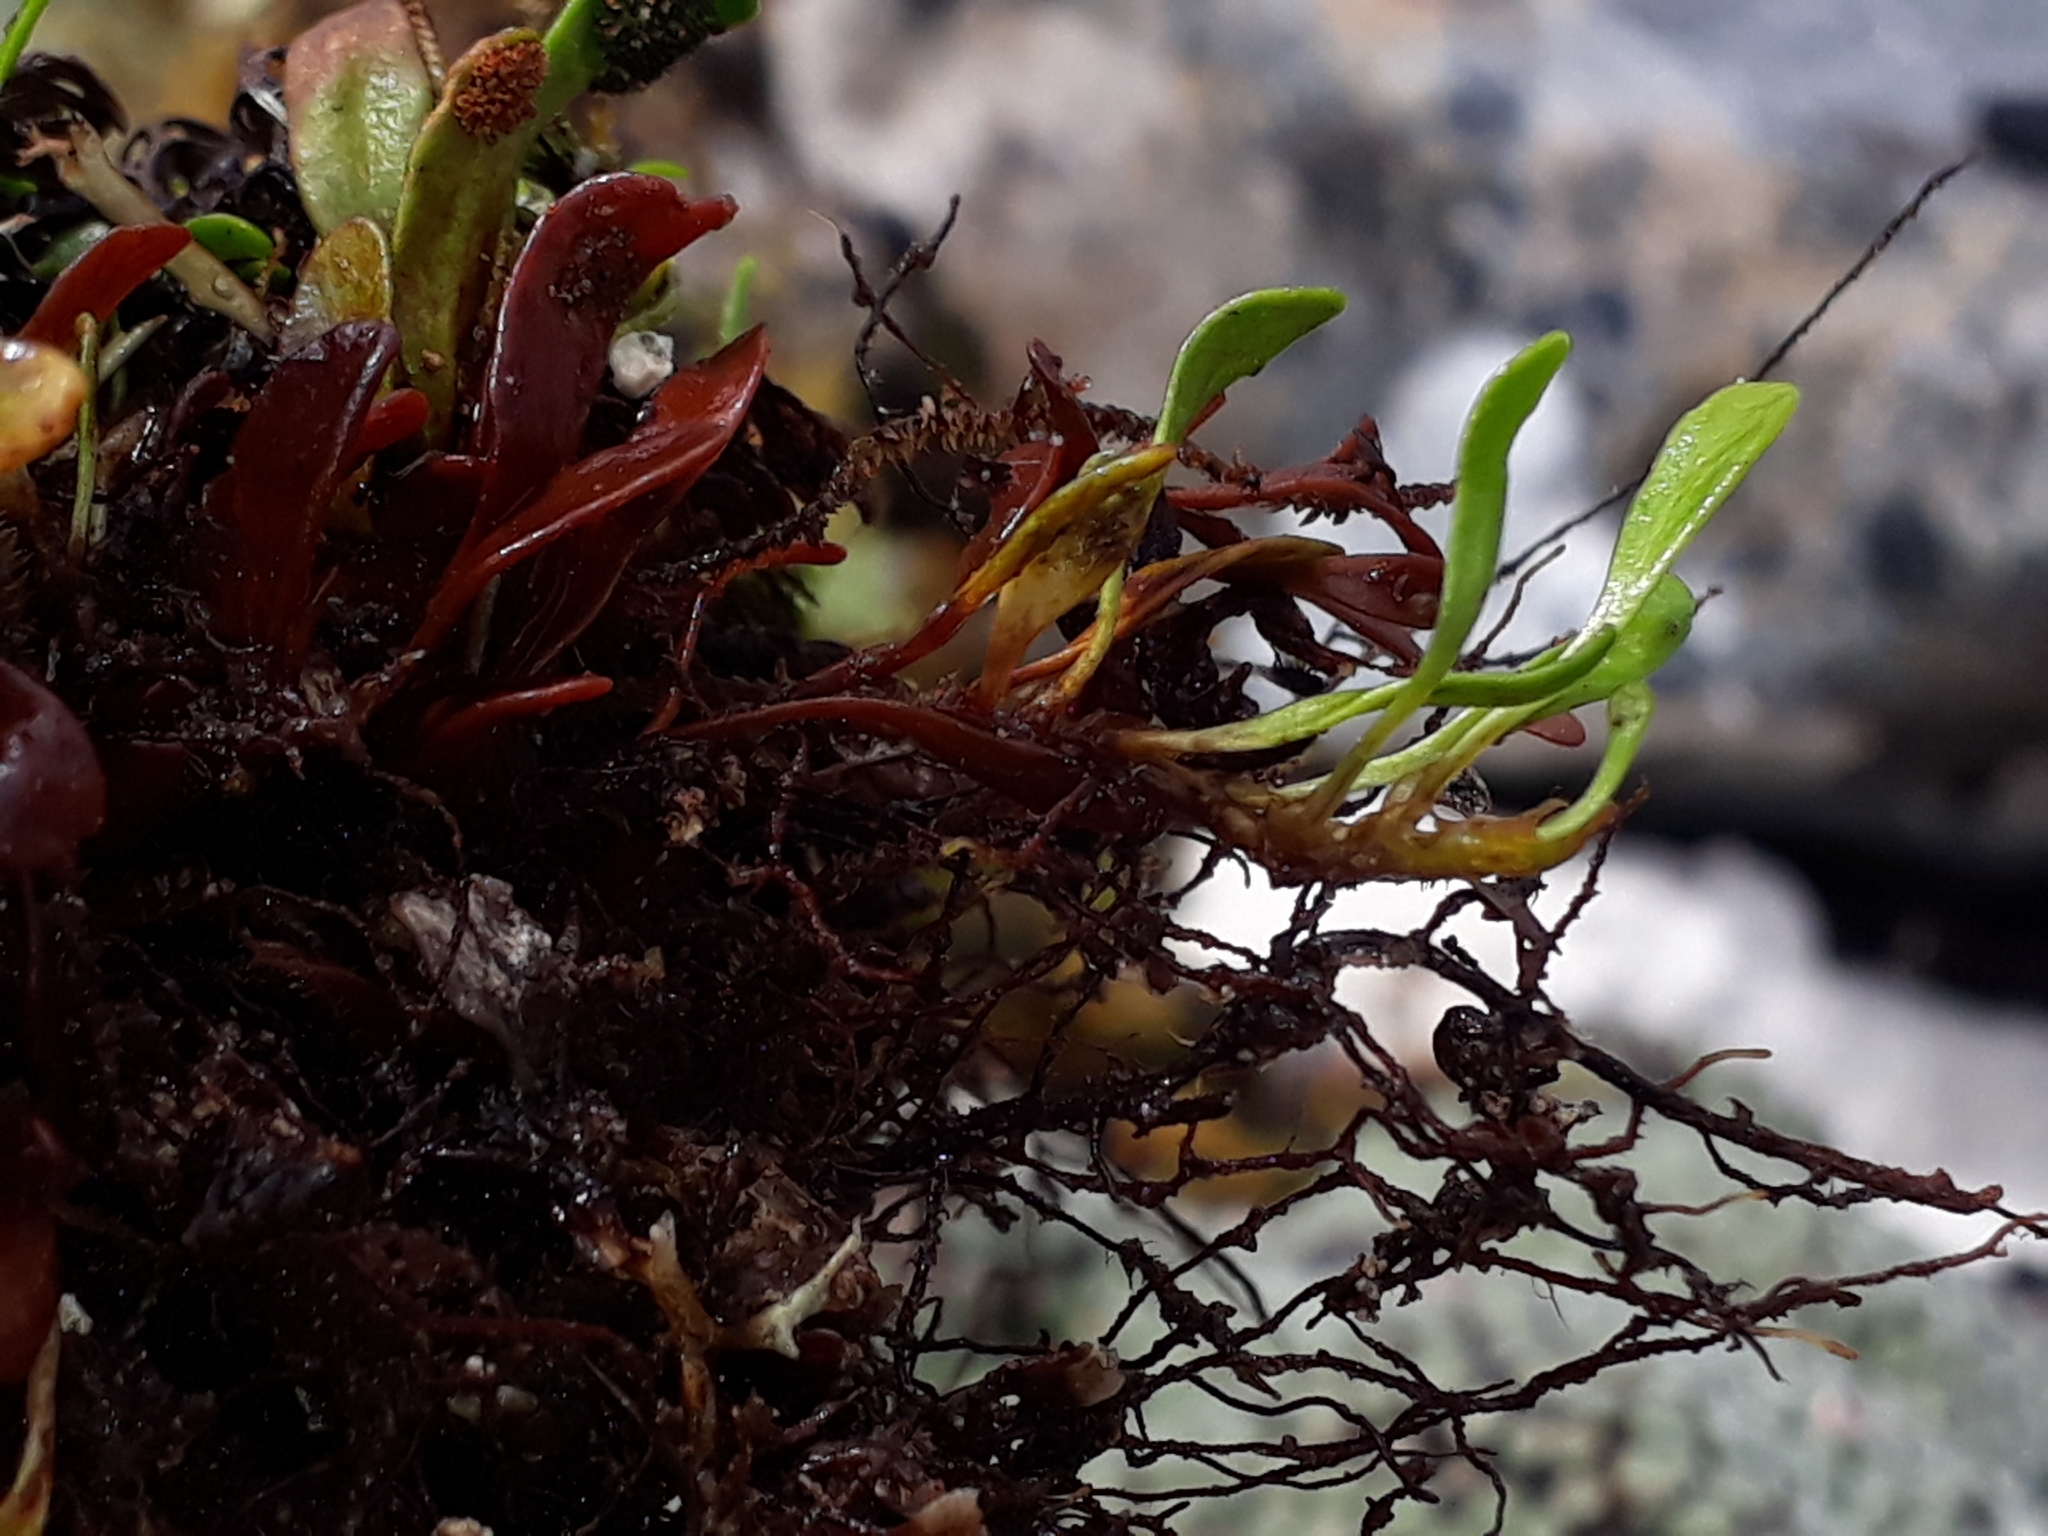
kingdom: Plantae
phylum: Tracheophyta
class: Polypodiopsida
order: Polypodiales
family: Polypodiaceae
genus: Notogrammitis
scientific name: Notogrammitis crassior
